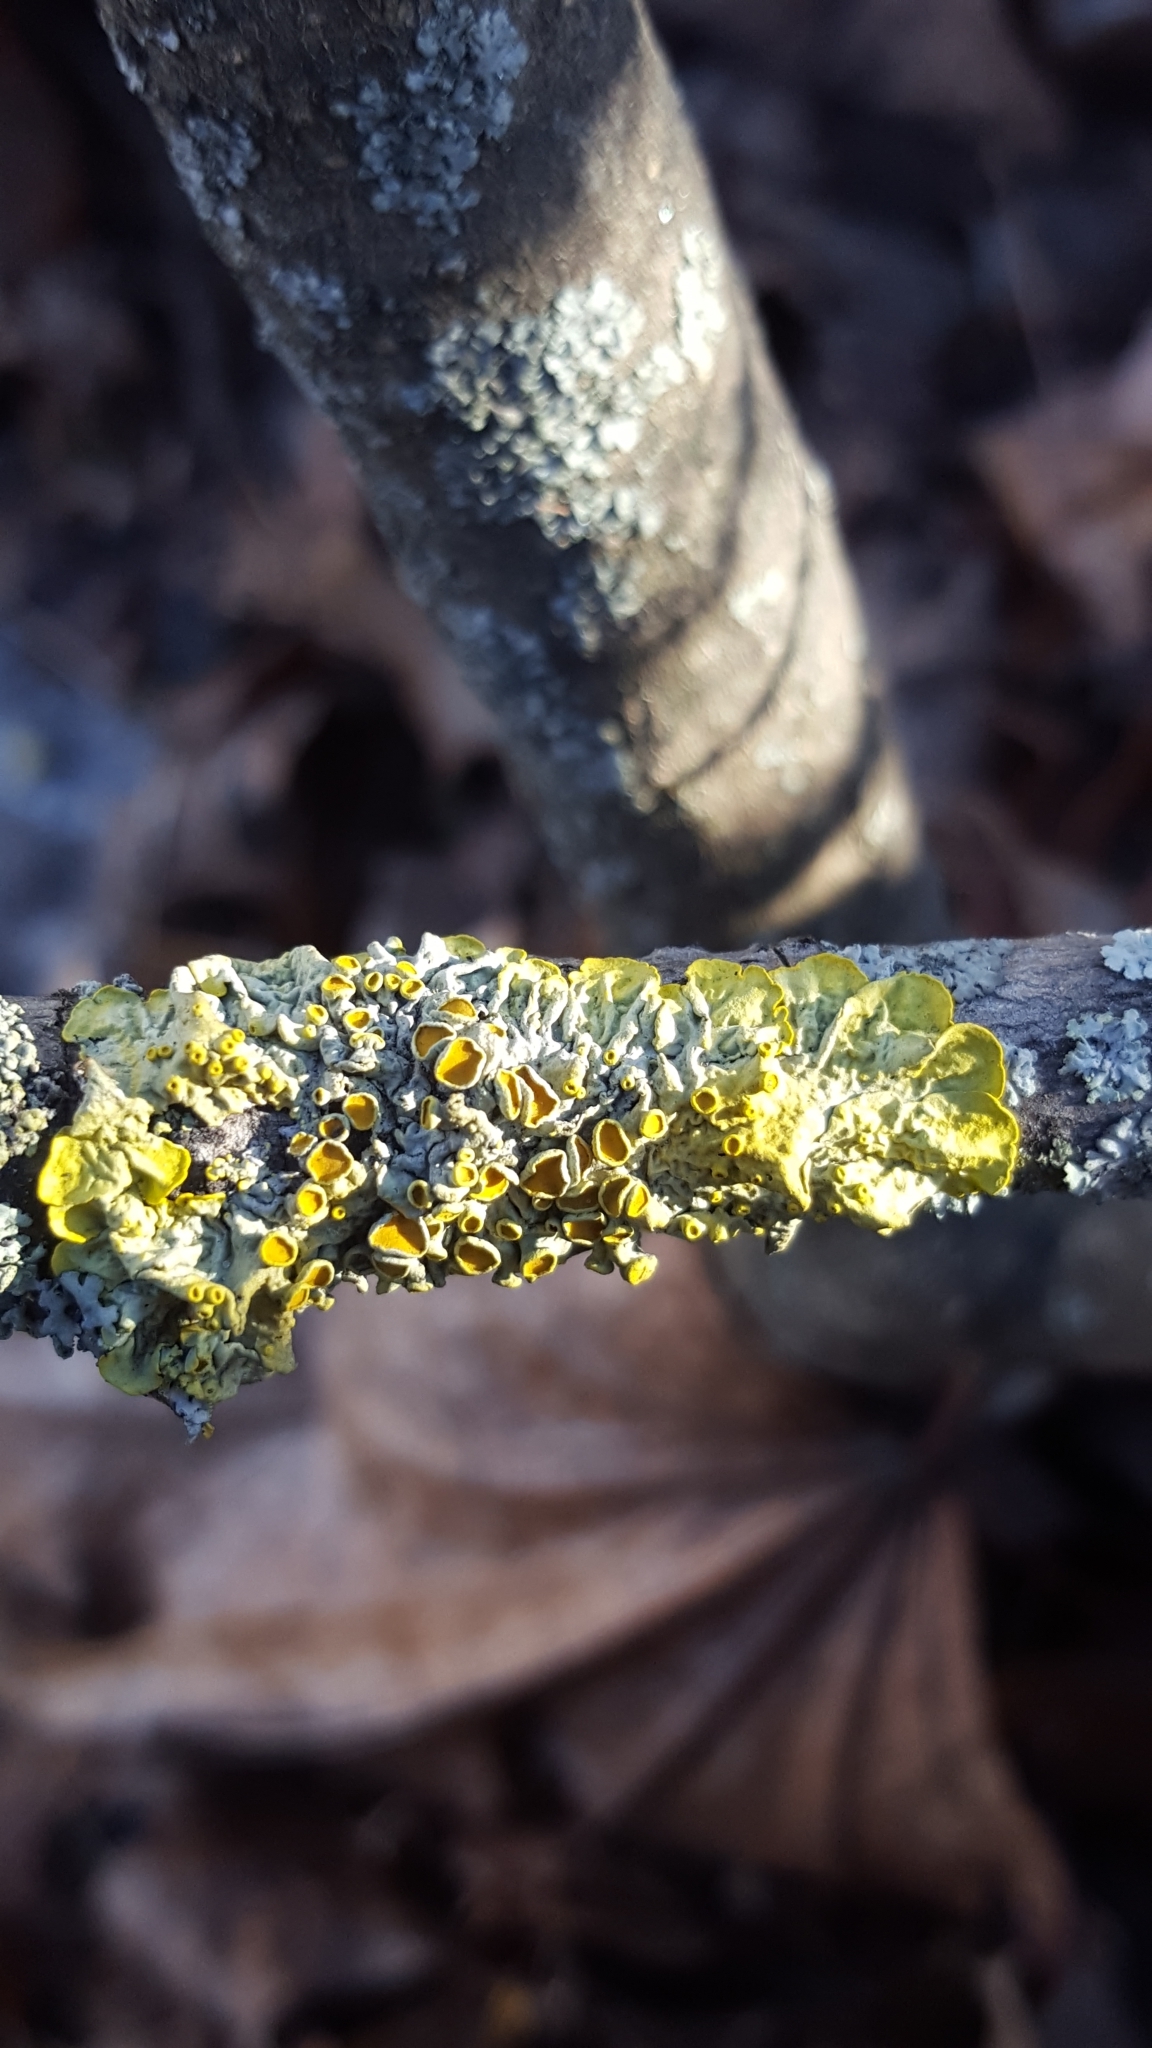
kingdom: Fungi
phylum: Ascomycota
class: Lecanoromycetes
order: Teloschistales
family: Teloschistaceae
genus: Xanthoria
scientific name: Xanthoria parietina
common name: Common orange lichen
